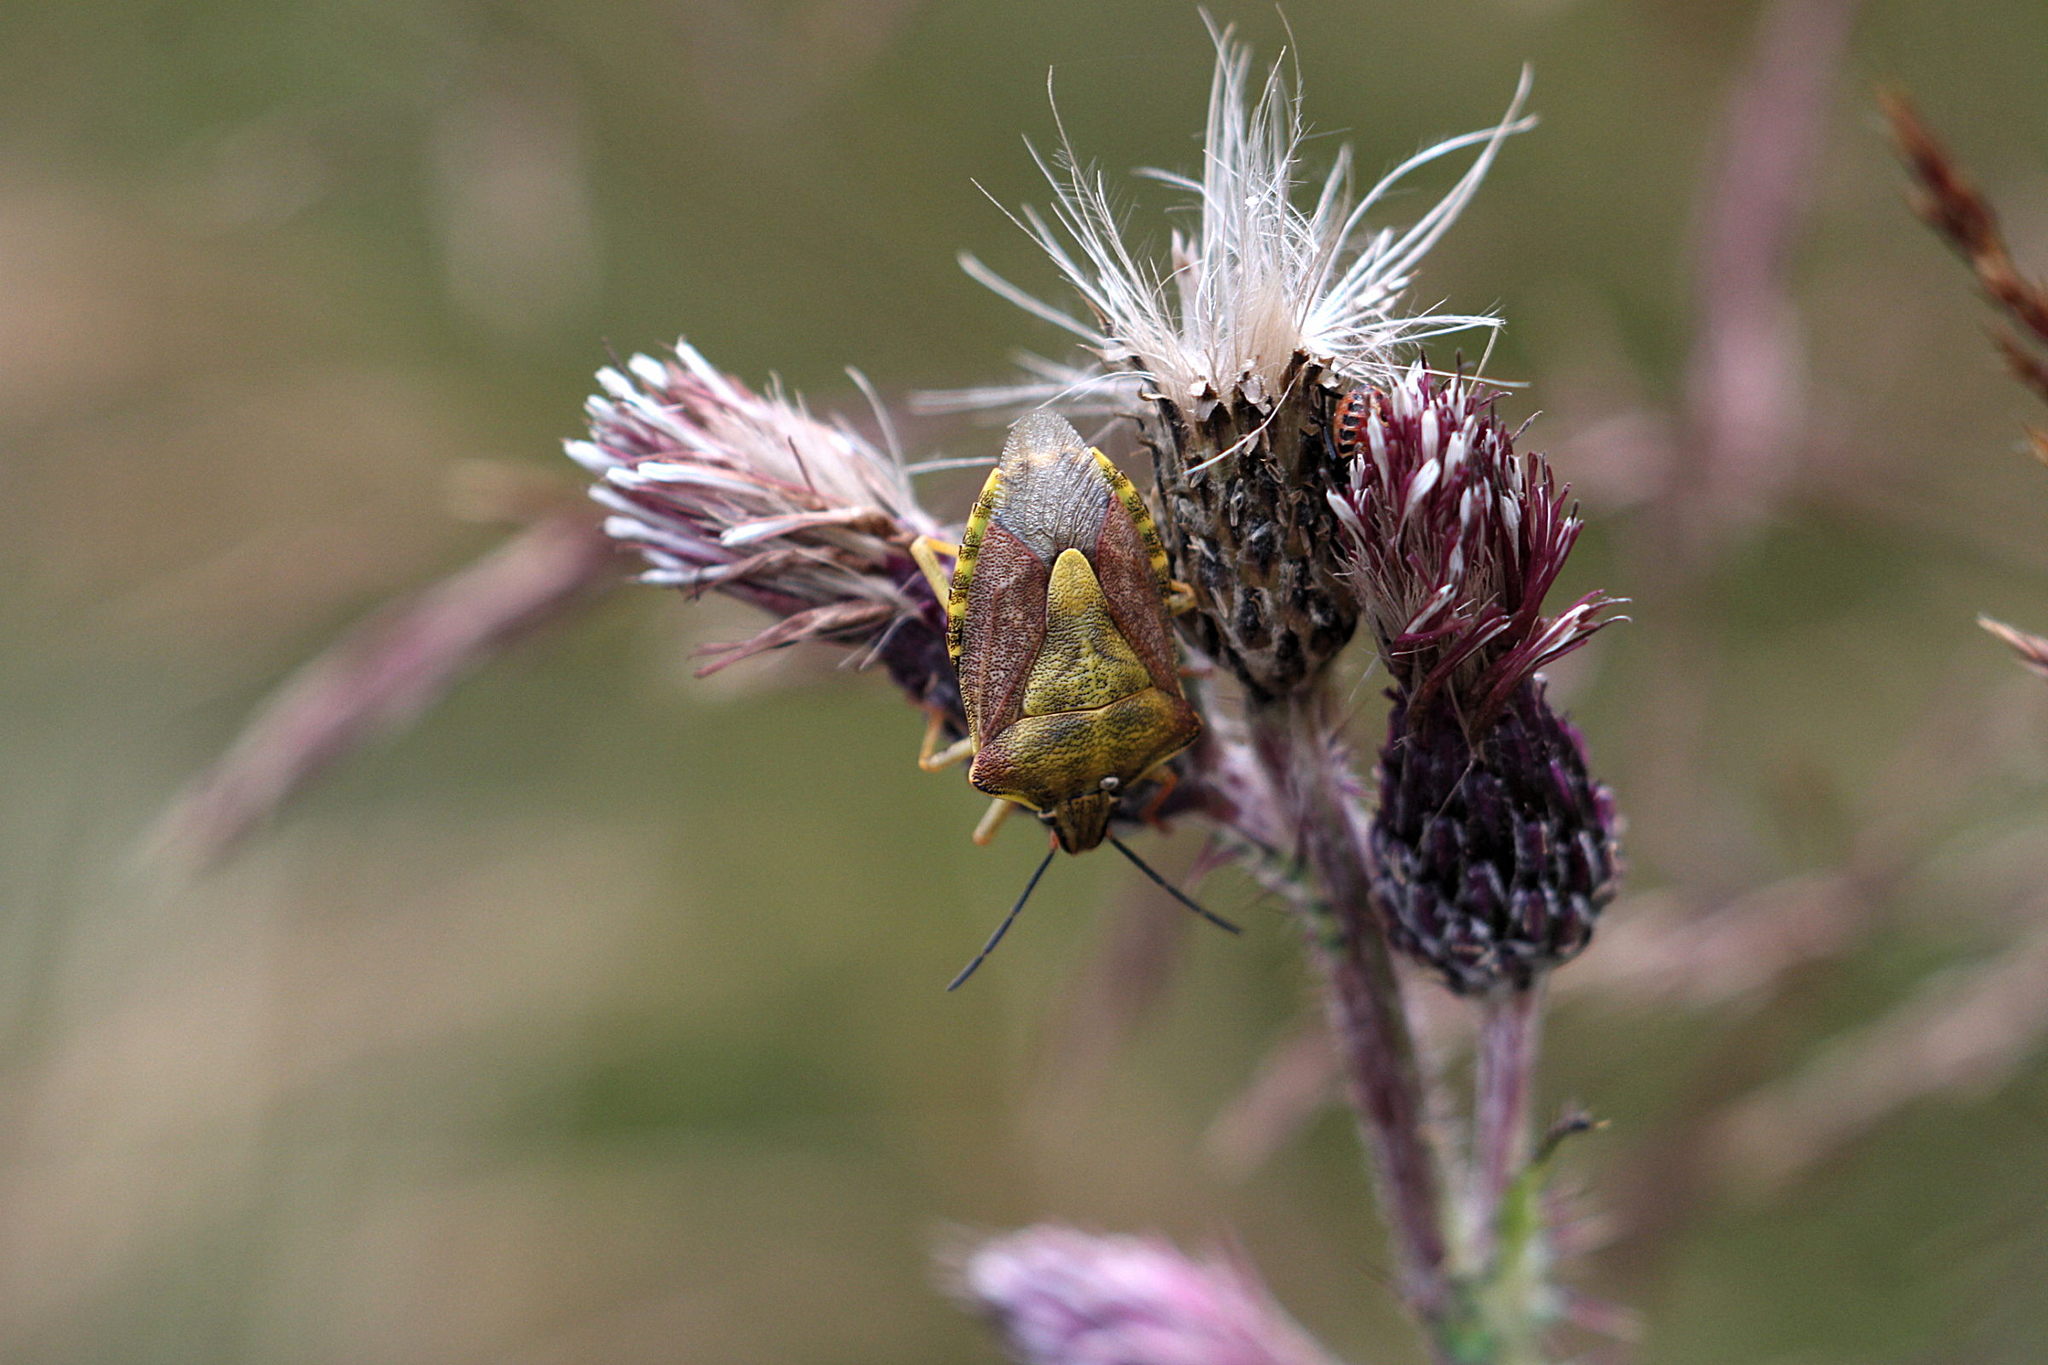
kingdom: Animalia
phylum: Arthropoda
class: Insecta
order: Hemiptera
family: Pentatomidae
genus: Carpocoris
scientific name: Carpocoris purpureipennis
